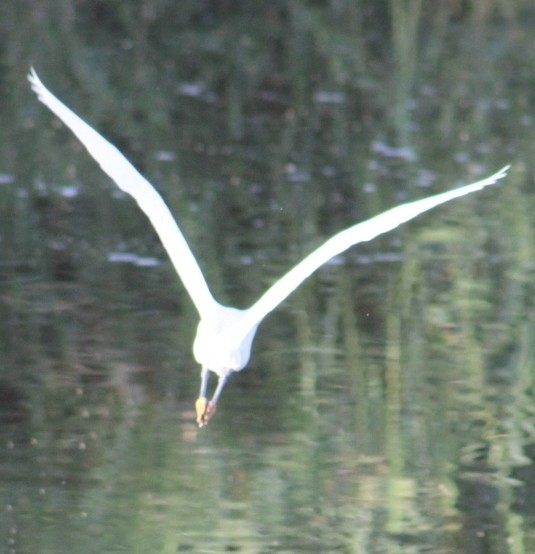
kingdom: Animalia
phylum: Chordata
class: Aves
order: Pelecaniformes
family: Ardeidae
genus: Egretta
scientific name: Egretta thula
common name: Snowy egret
